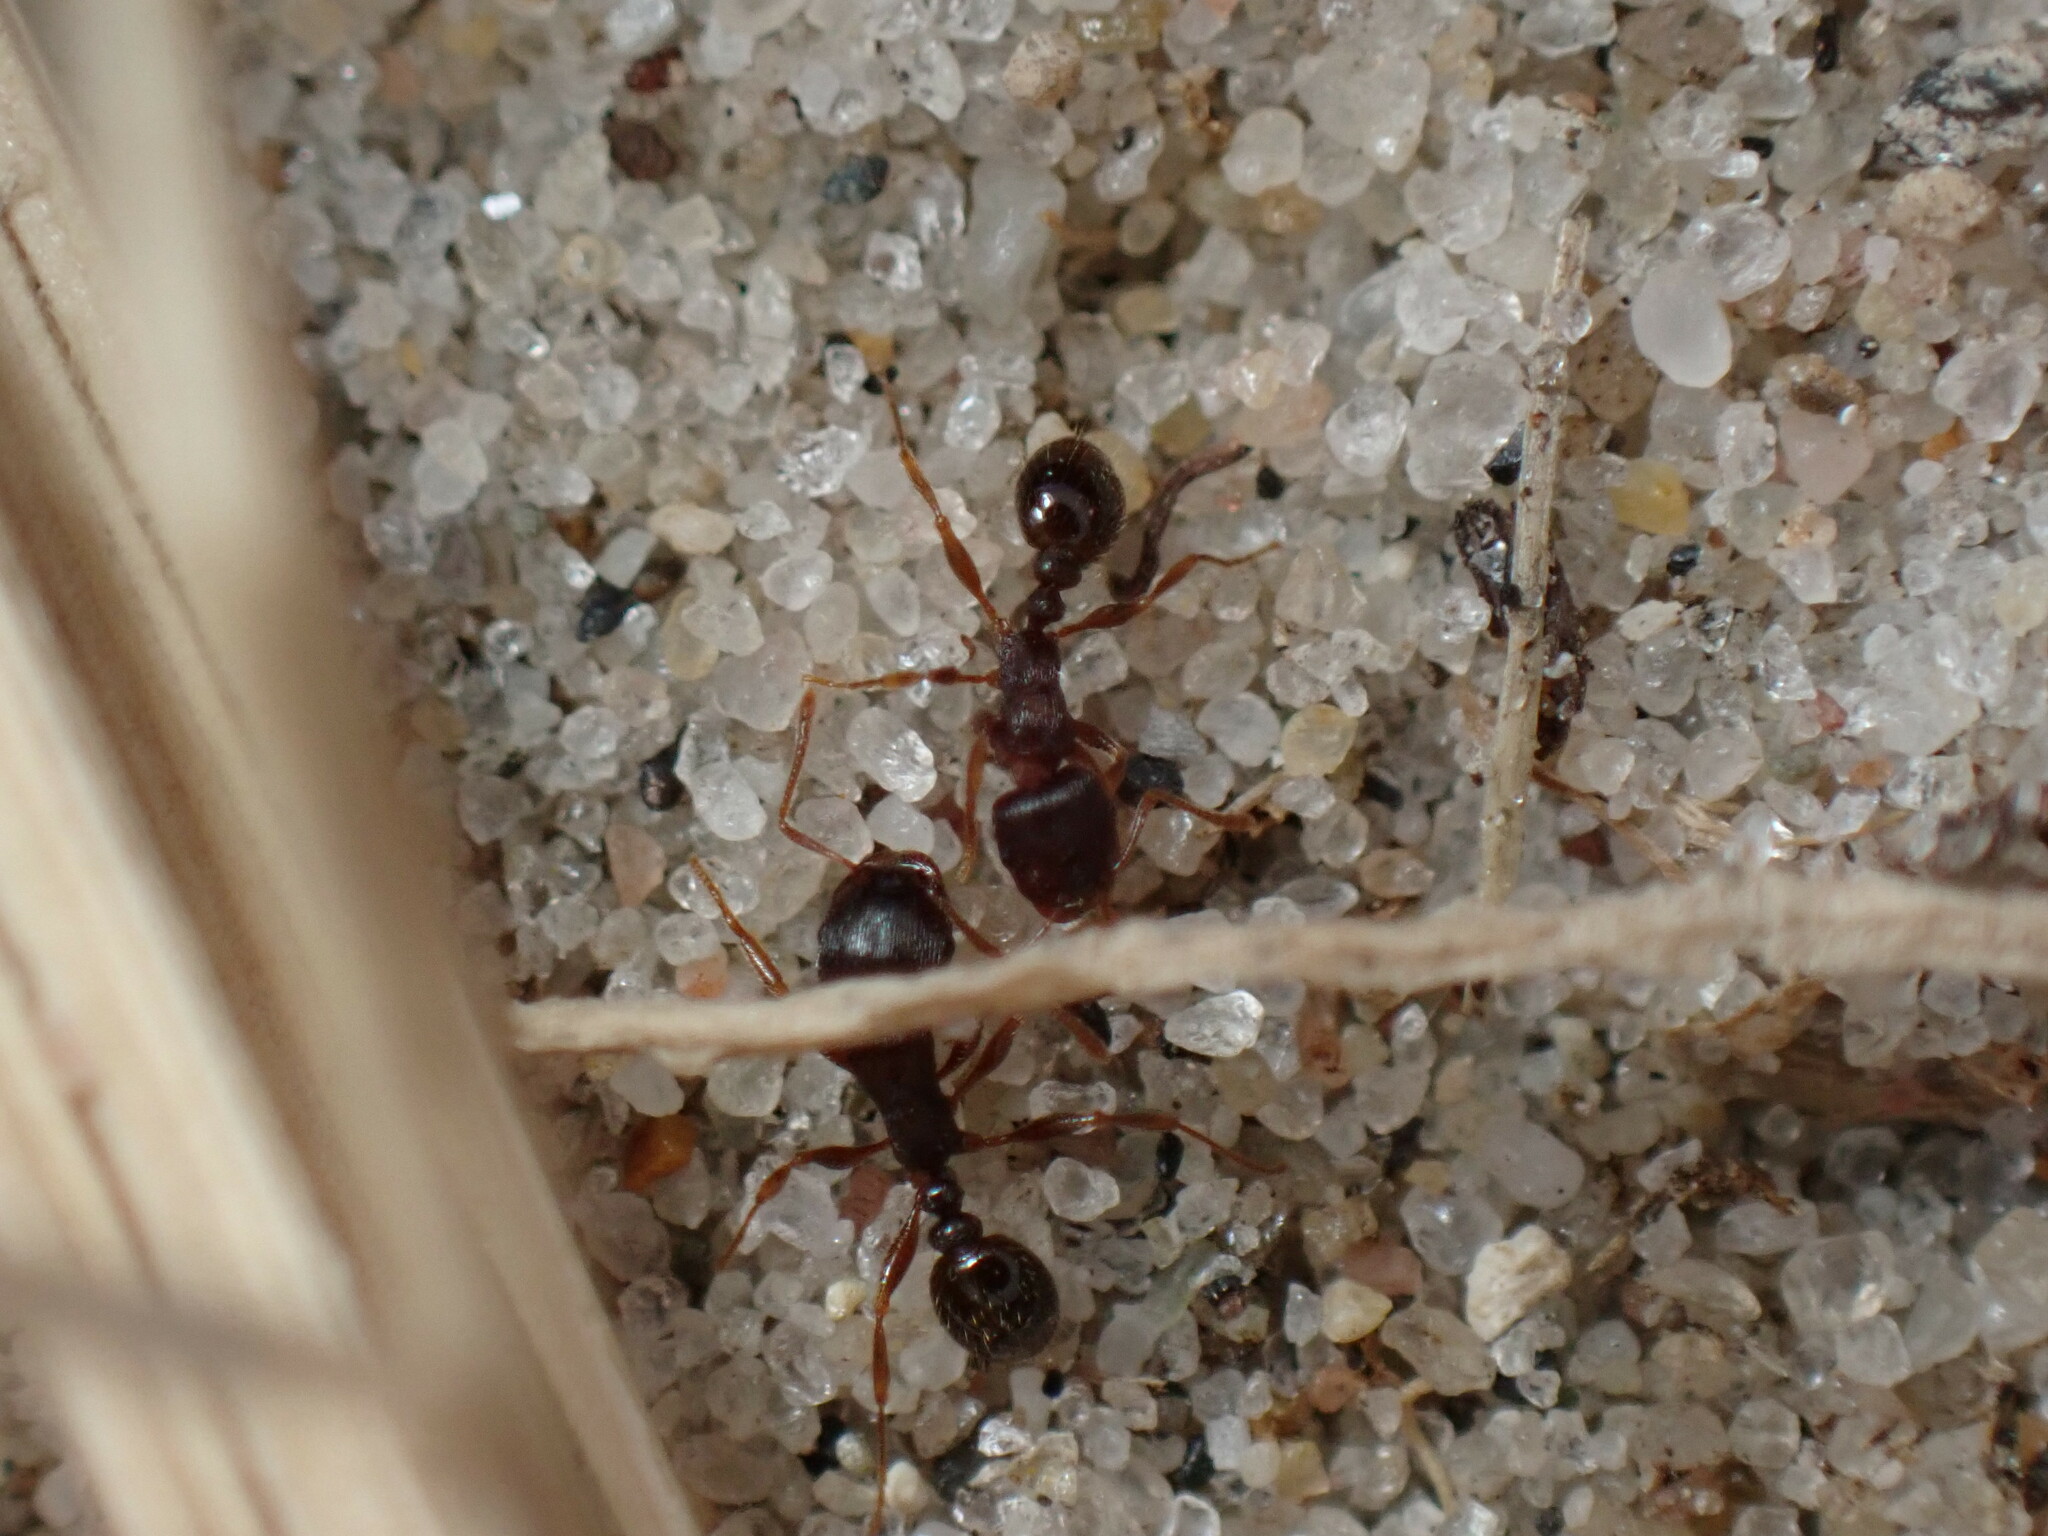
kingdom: Animalia
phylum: Arthropoda
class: Insecta
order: Hymenoptera
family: Formicidae
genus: Tetramorium
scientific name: Tetramorium immigrans
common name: Pavement ant
